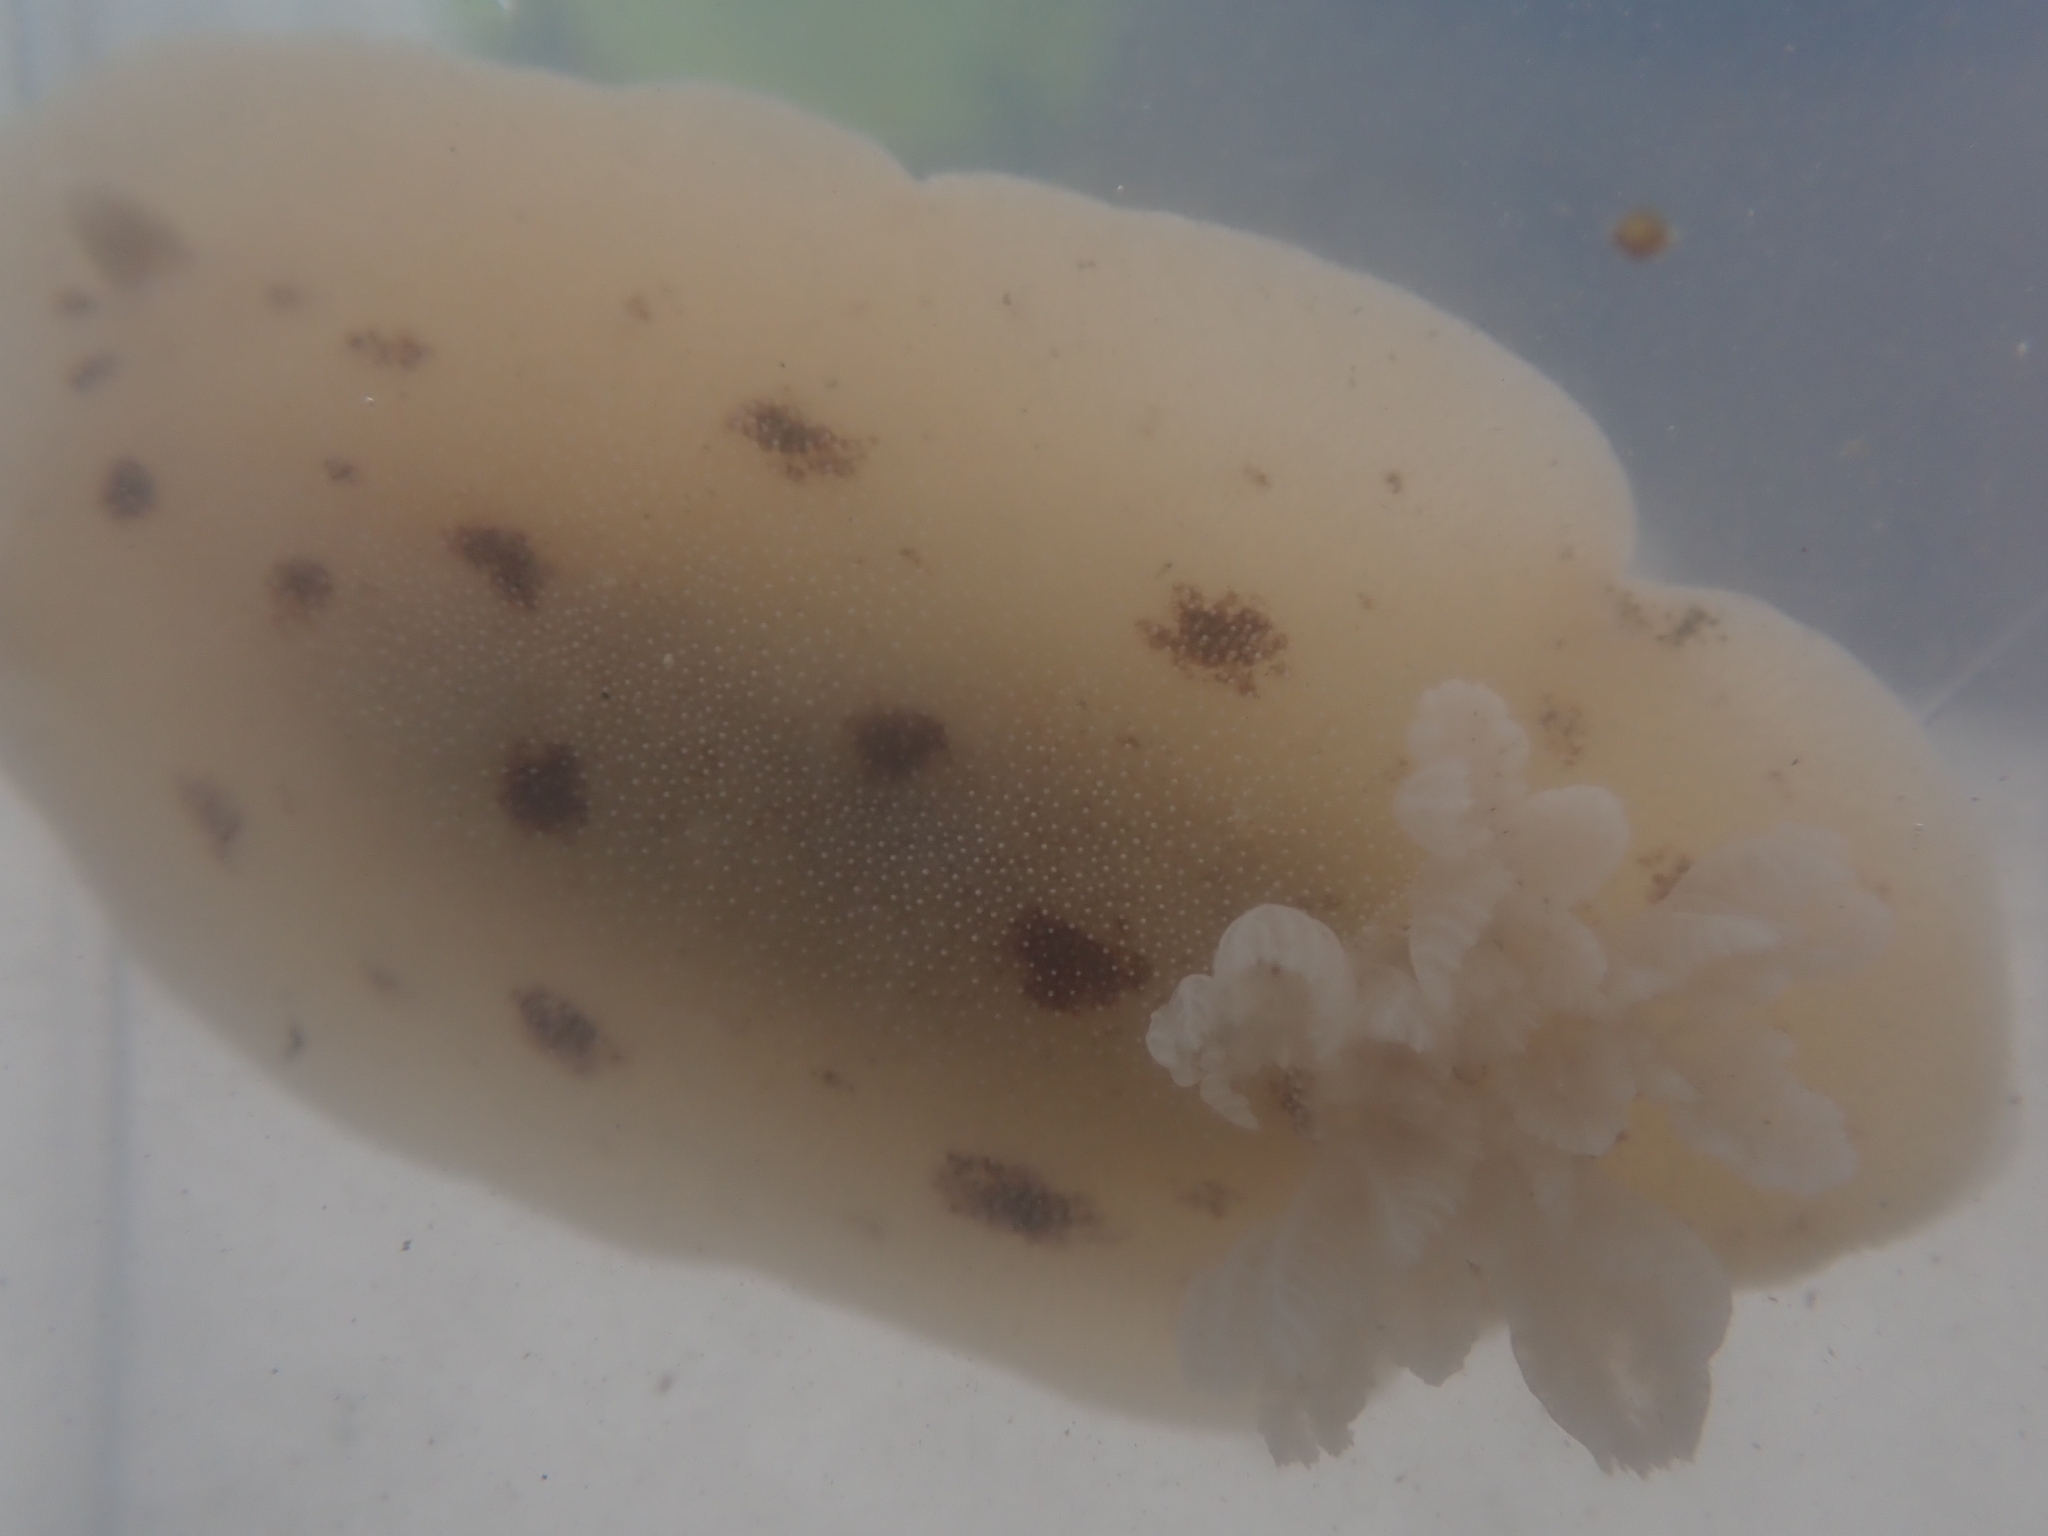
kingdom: Animalia
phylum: Mollusca
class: Gastropoda
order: Nudibranchia
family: Discodorididae
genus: Alloiodoris
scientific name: Alloiodoris lanuginata
